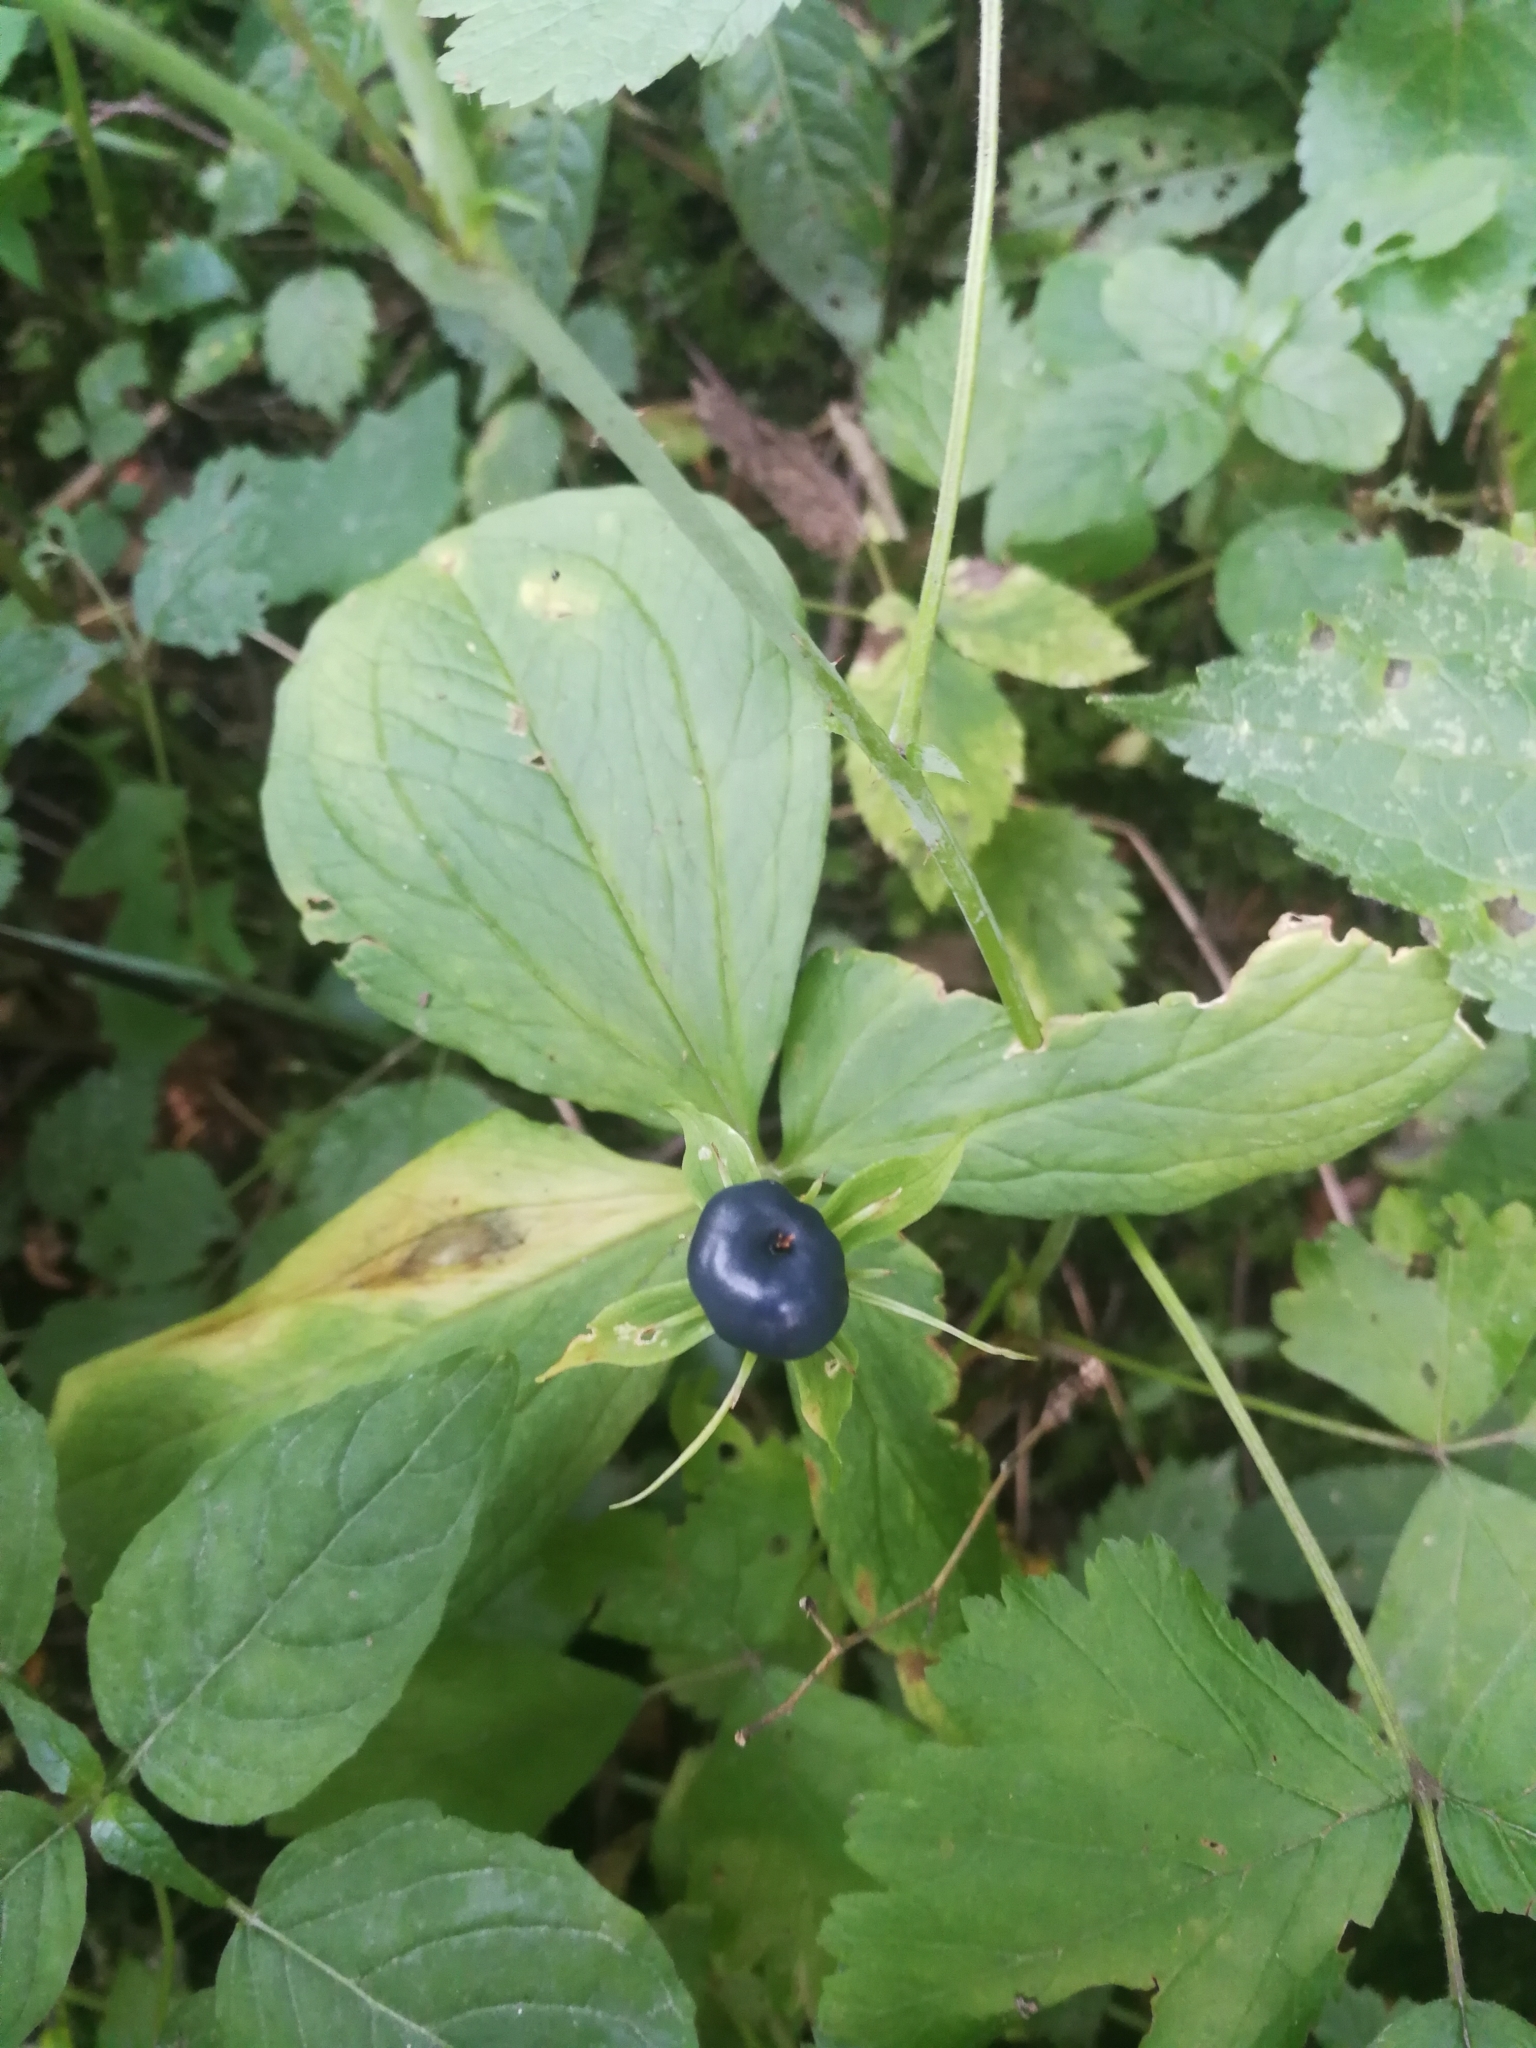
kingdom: Plantae
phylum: Tracheophyta
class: Liliopsida
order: Liliales
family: Melanthiaceae
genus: Paris
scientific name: Paris quadrifolia
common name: Herb-paris
